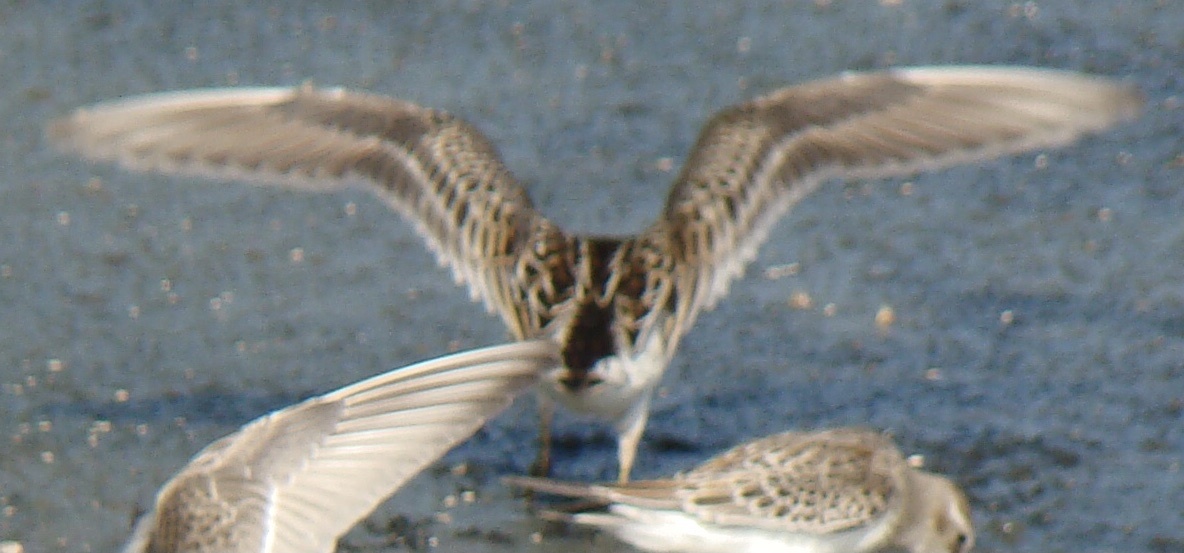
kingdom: Animalia
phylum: Chordata
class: Aves
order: Charadriiformes
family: Scolopacidae
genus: Calidris
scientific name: Calidris melanotos
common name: Pectoral sandpiper
